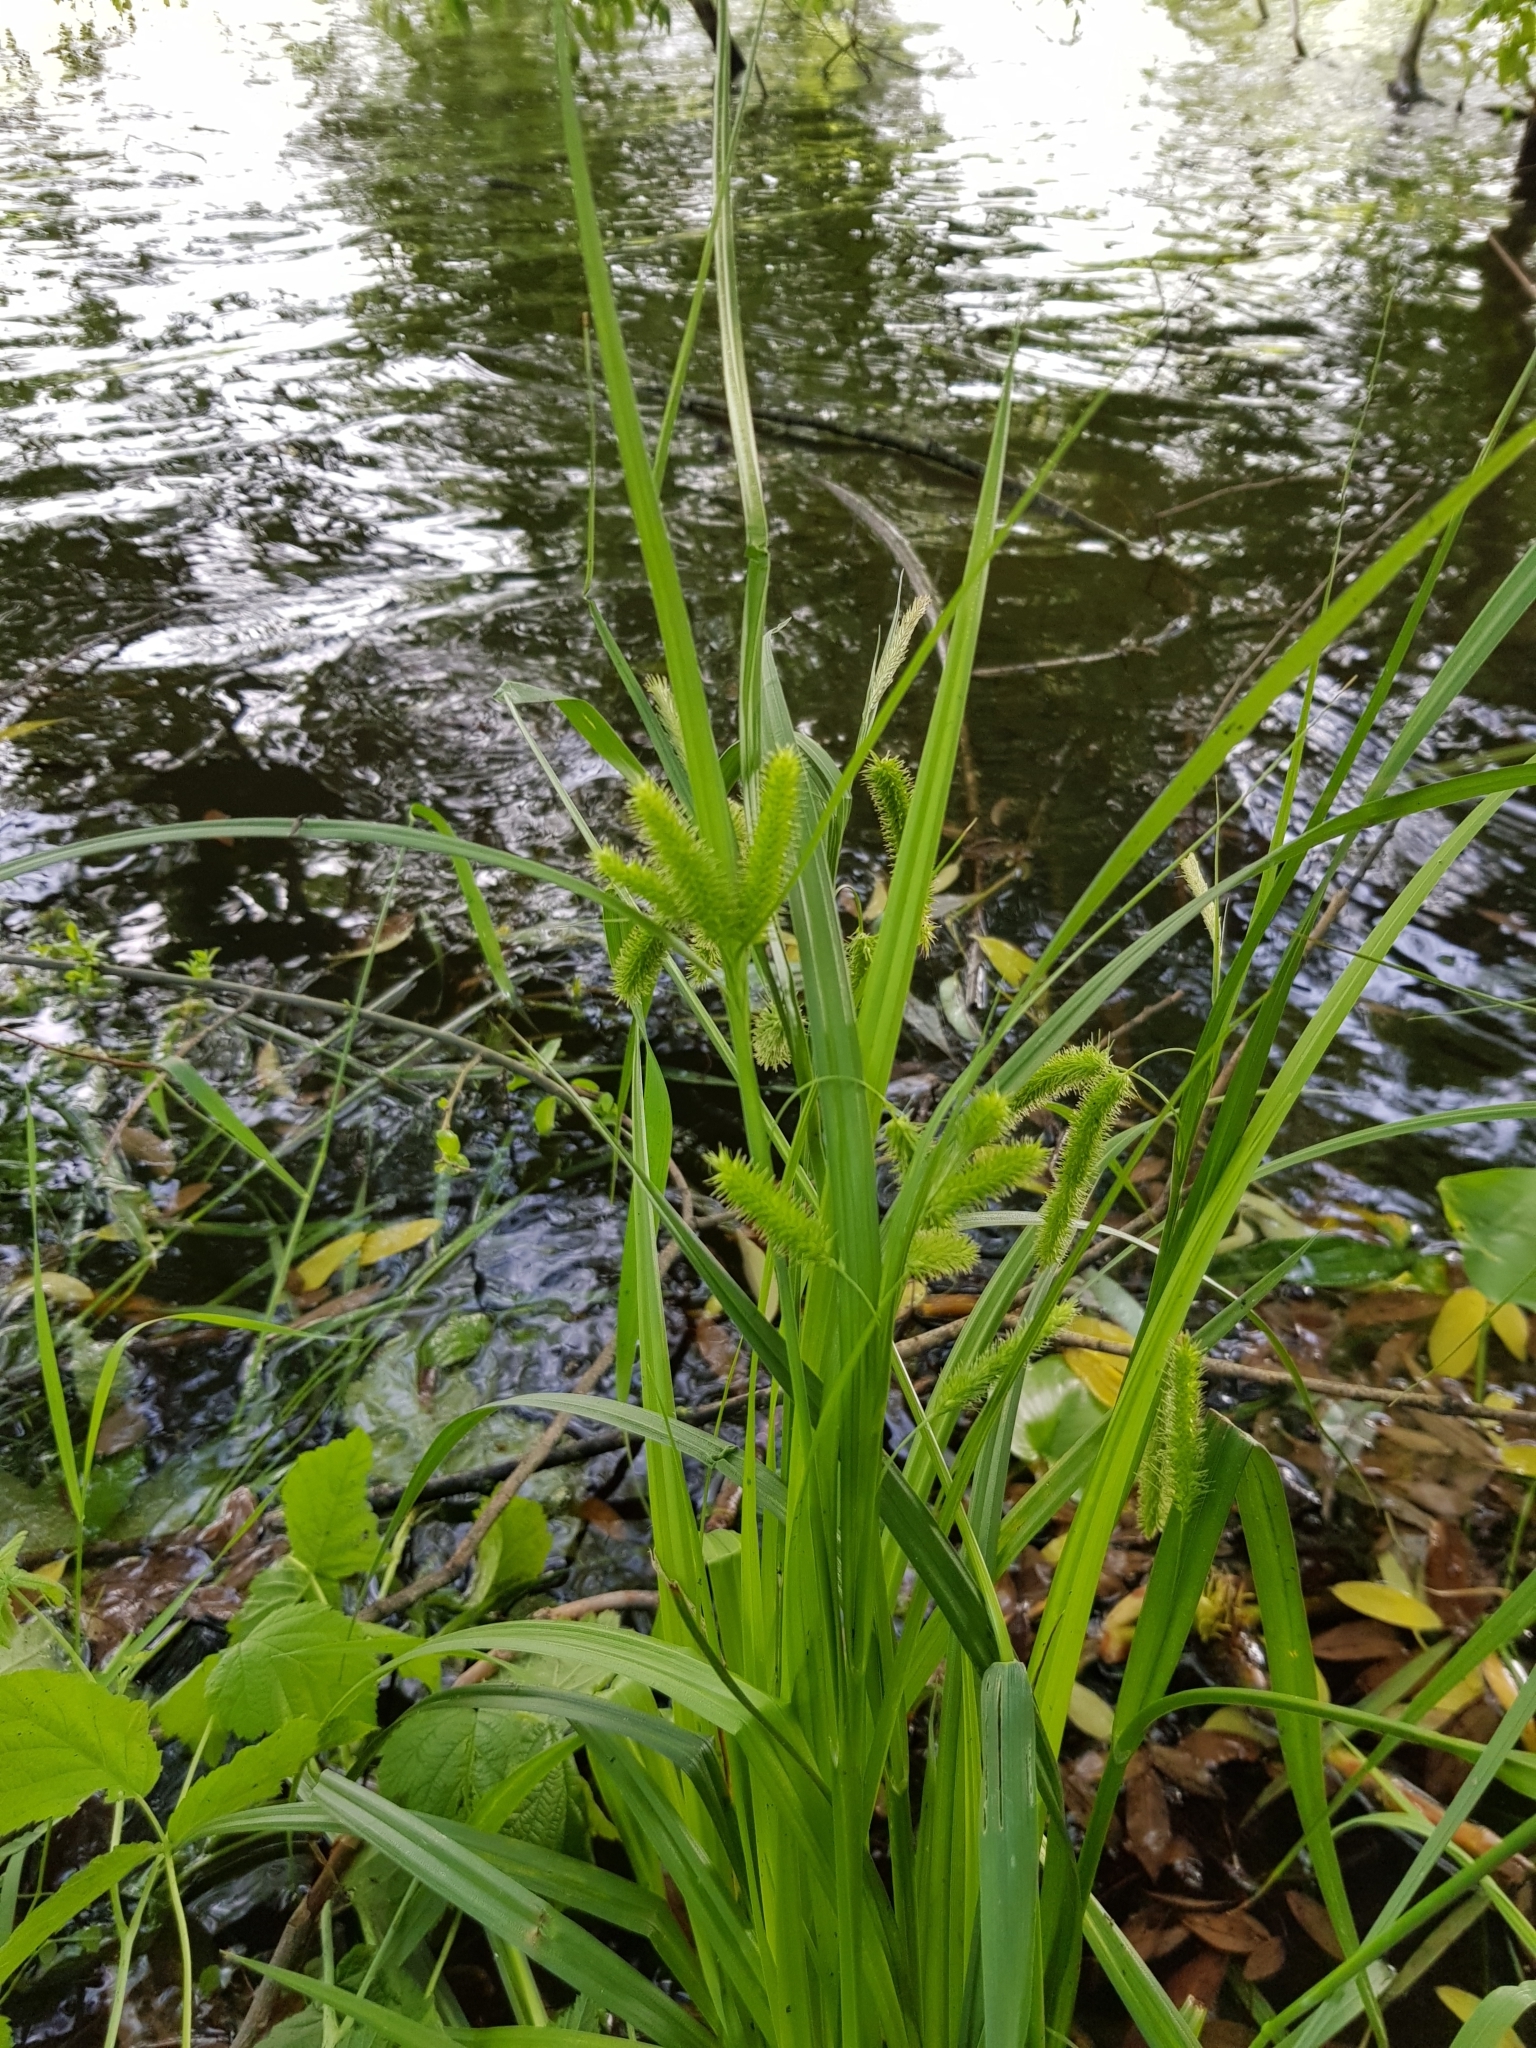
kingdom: Plantae
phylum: Tracheophyta
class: Liliopsida
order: Poales
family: Cyperaceae
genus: Carex
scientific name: Carex pseudocyperus
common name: Cyperus sedge
